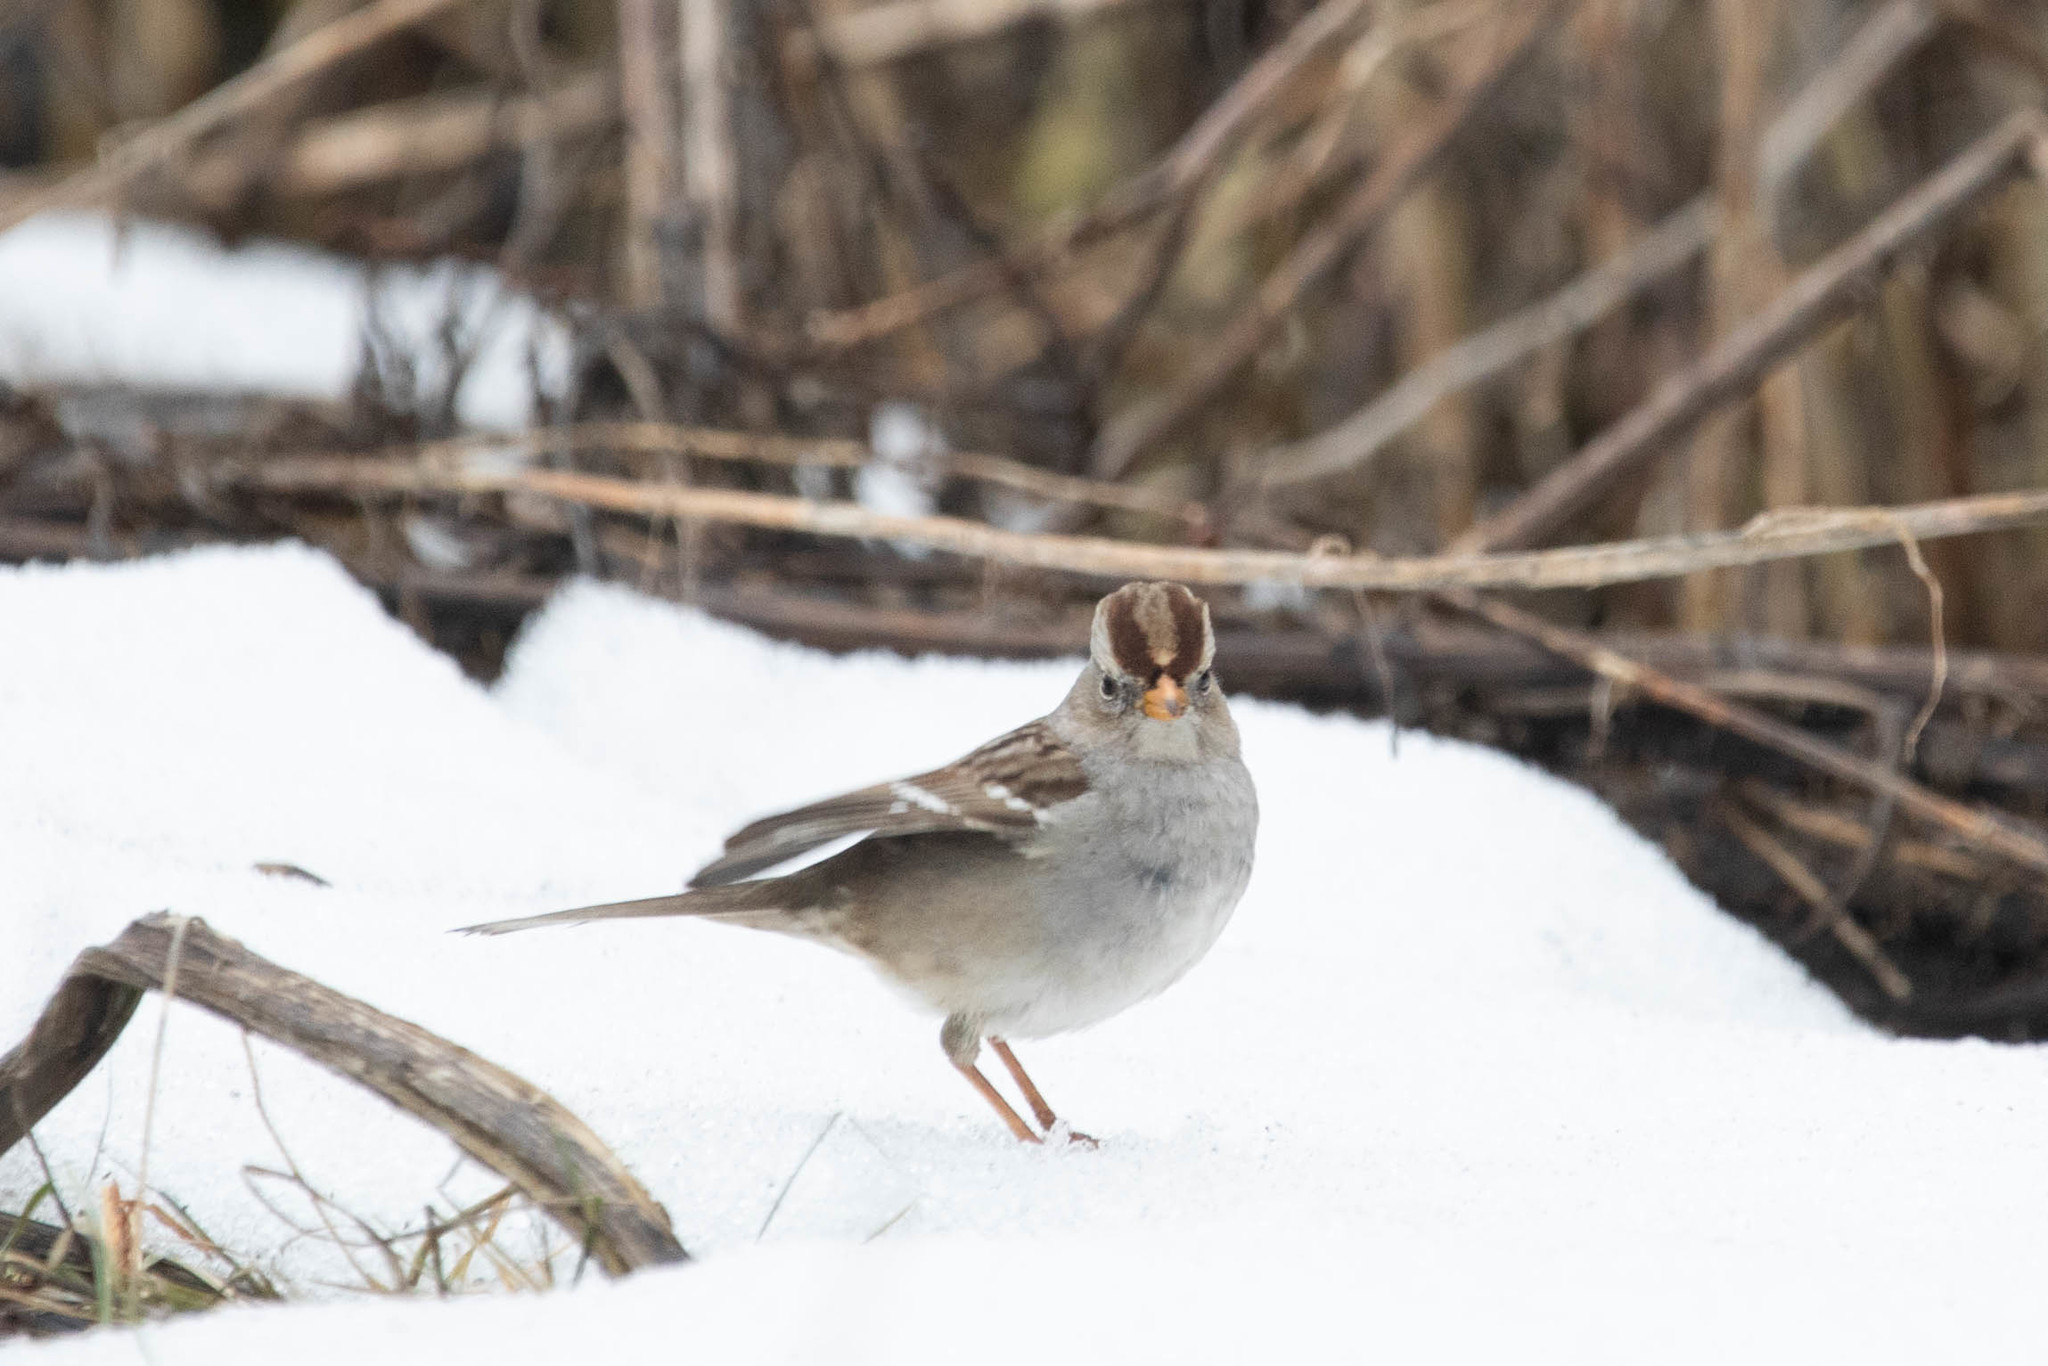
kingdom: Animalia
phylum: Chordata
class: Aves
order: Passeriformes
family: Passerellidae
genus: Zonotrichia
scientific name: Zonotrichia leucophrys
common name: White-crowned sparrow
